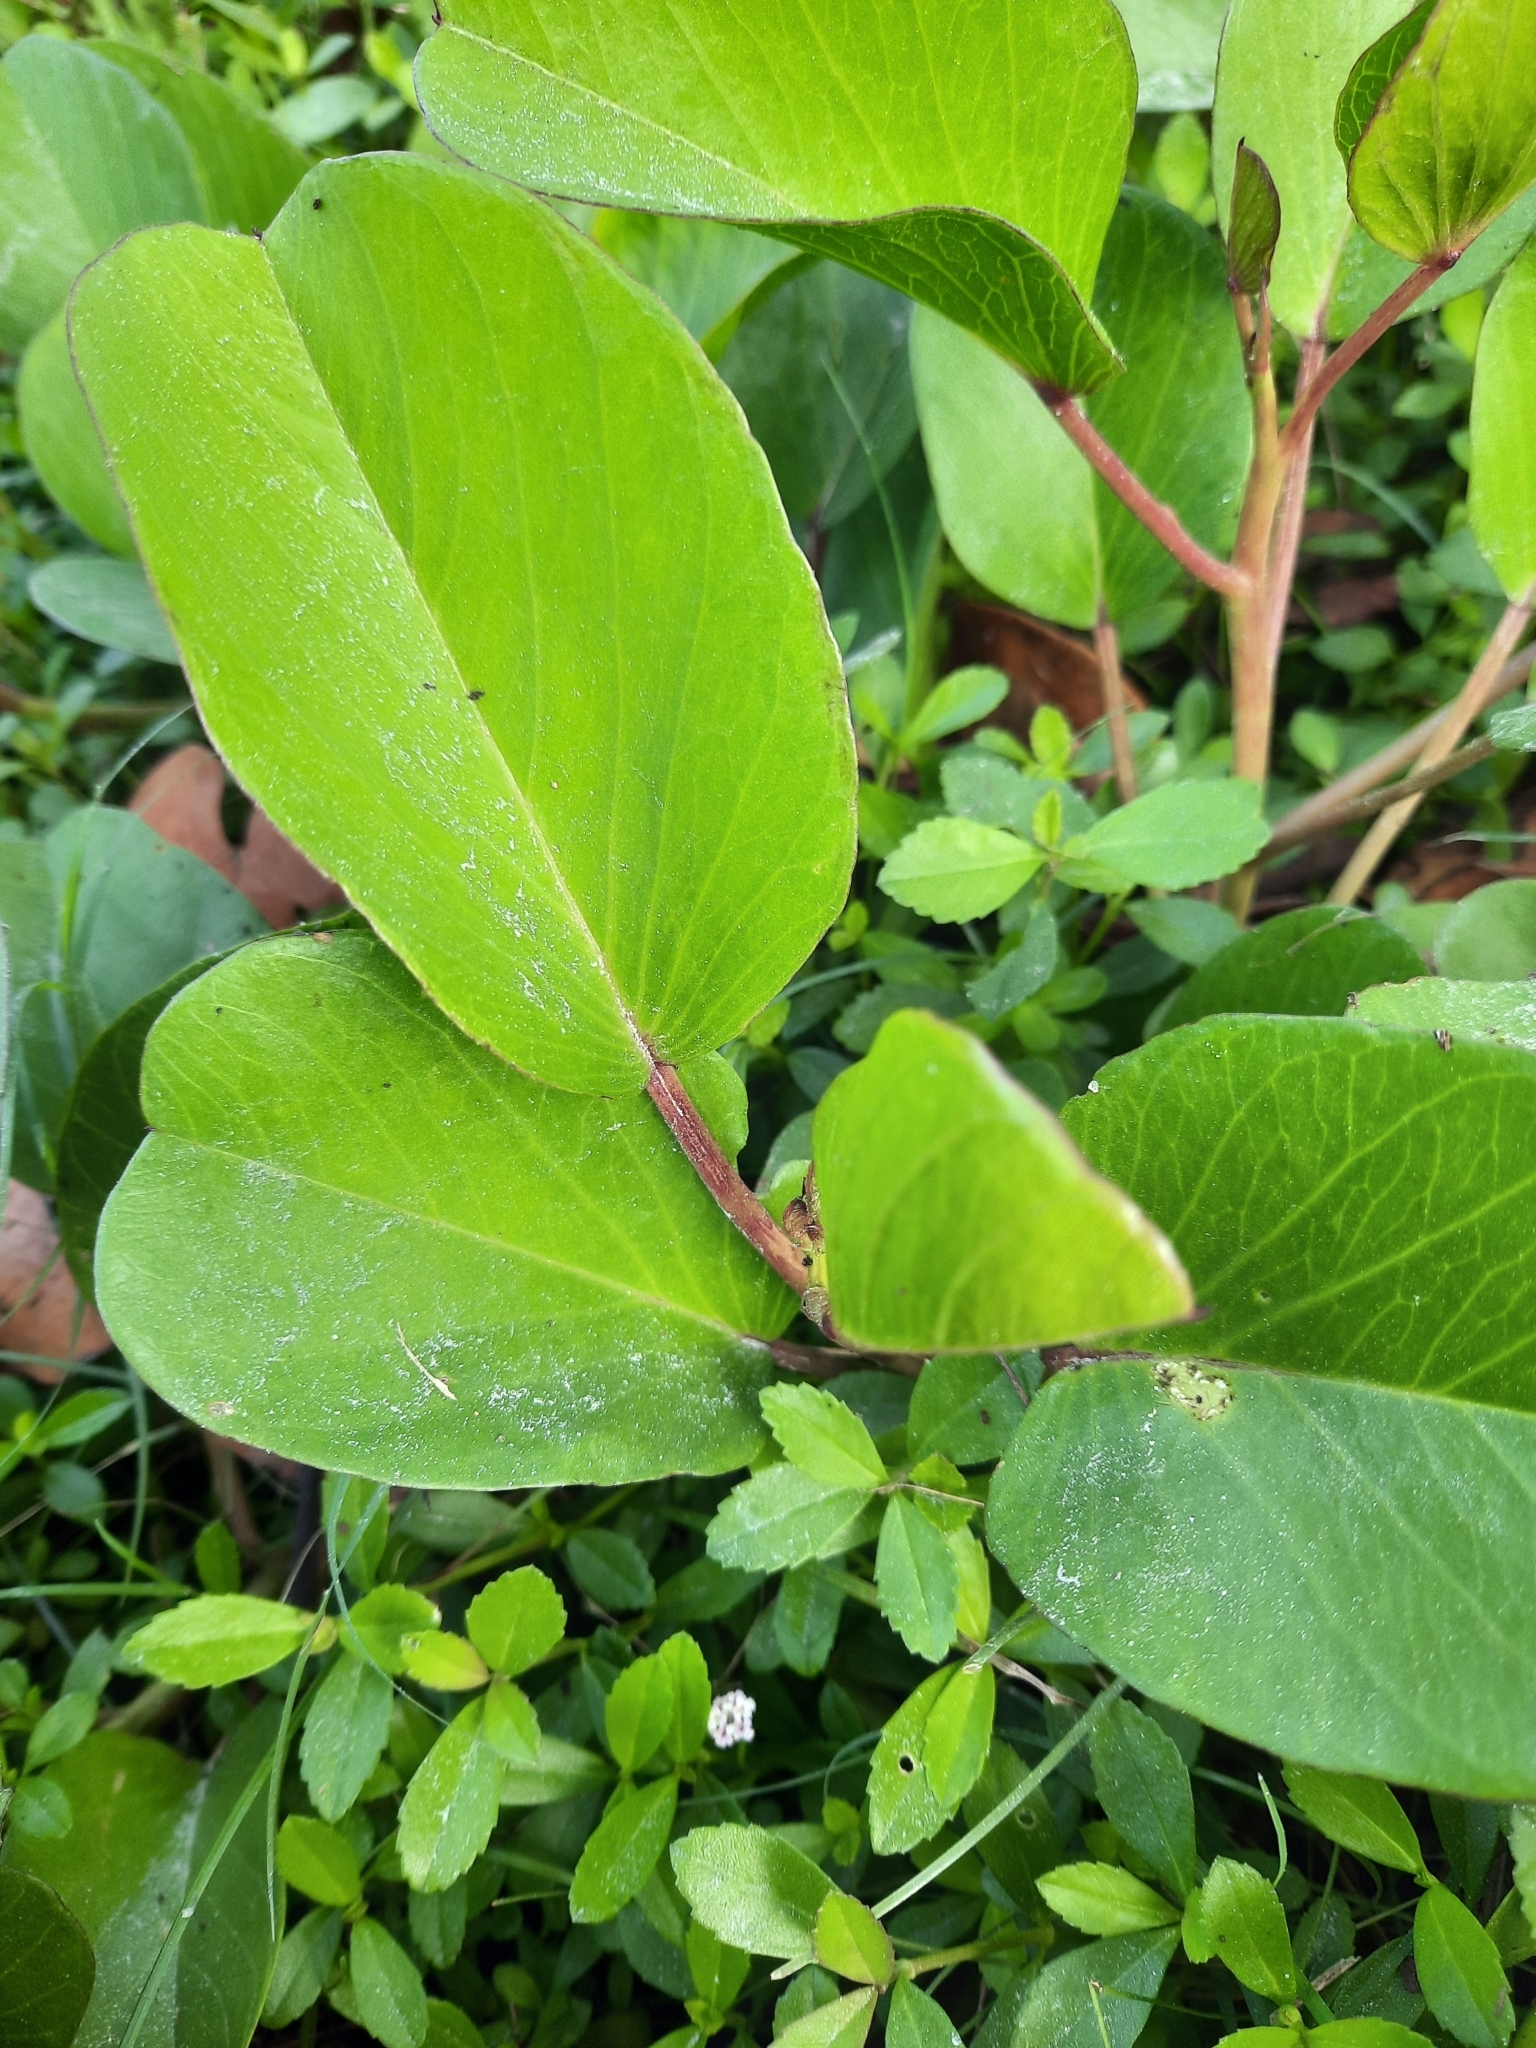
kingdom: Plantae
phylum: Tracheophyta
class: Magnoliopsida
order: Solanales
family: Convolvulaceae
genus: Ipomoea
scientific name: Ipomoea pes-caprae
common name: Beach morning glory
